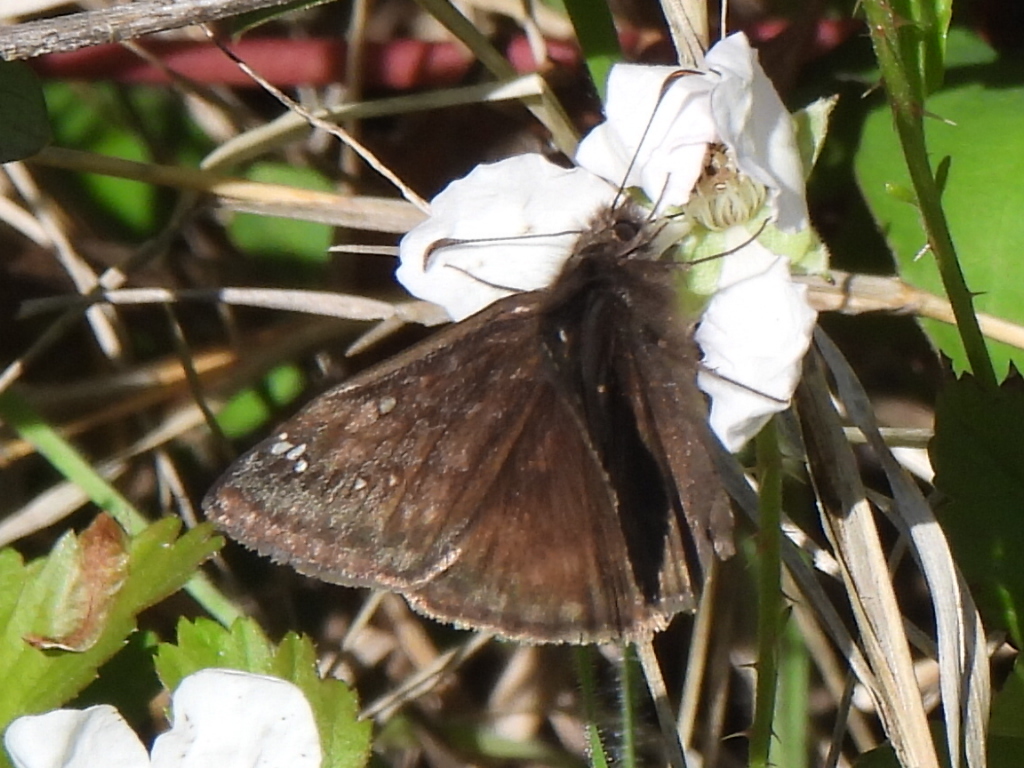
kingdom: Animalia
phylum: Arthropoda
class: Insecta
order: Lepidoptera
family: Hesperiidae
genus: Erynnis
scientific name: Erynnis juvenalis
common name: Juvenal's duskywing
